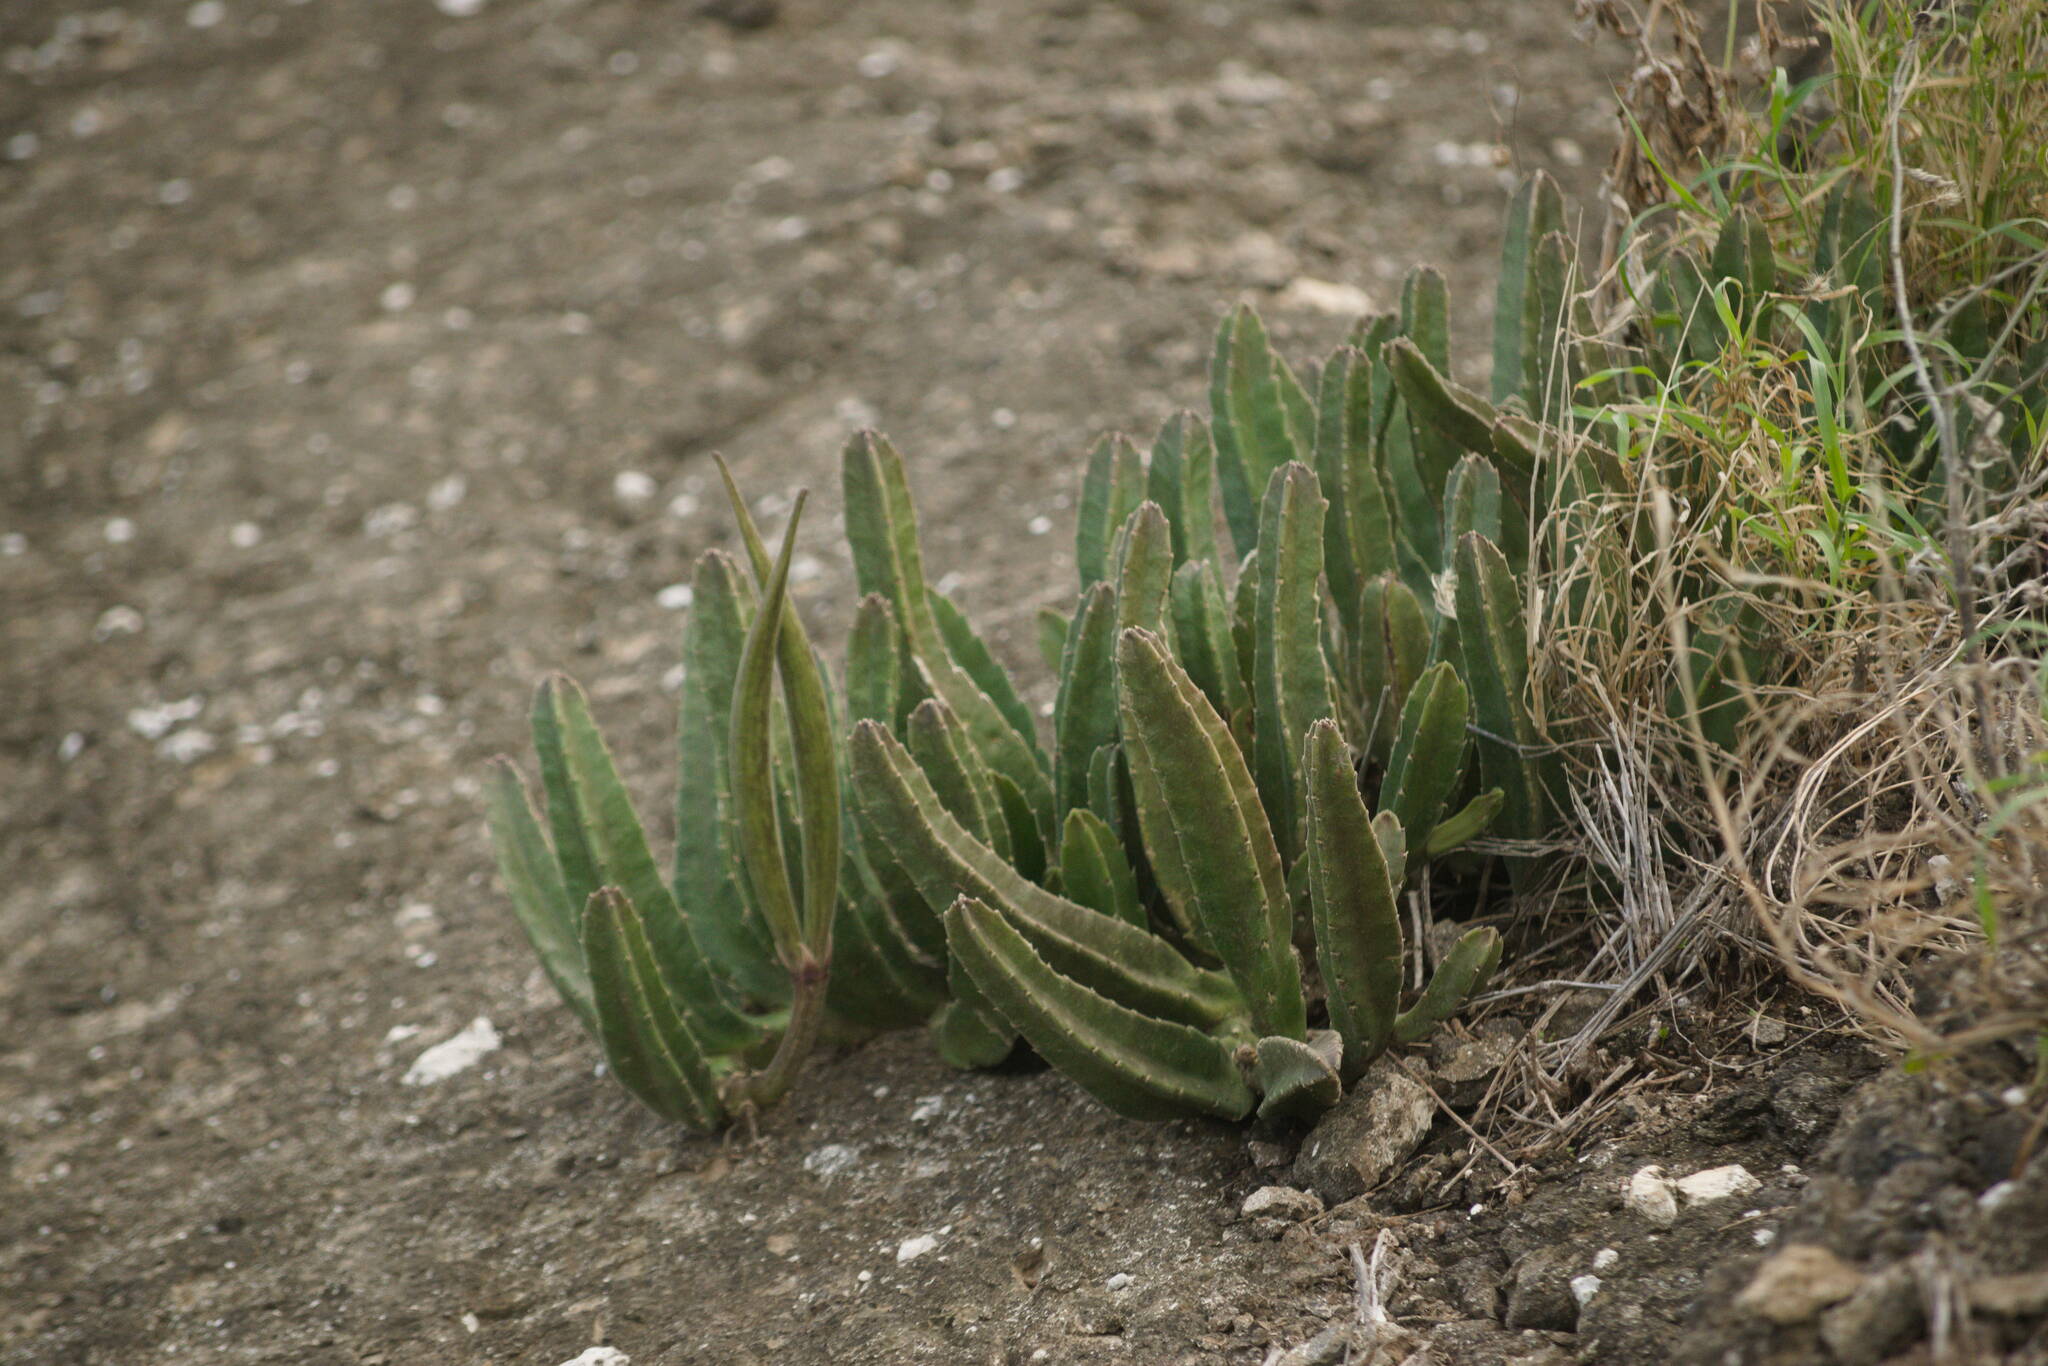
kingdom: Plantae
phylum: Tracheophyta
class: Magnoliopsida
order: Gentianales
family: Apocynaceae
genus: Ceropegia
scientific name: Ceropegia gigantea
